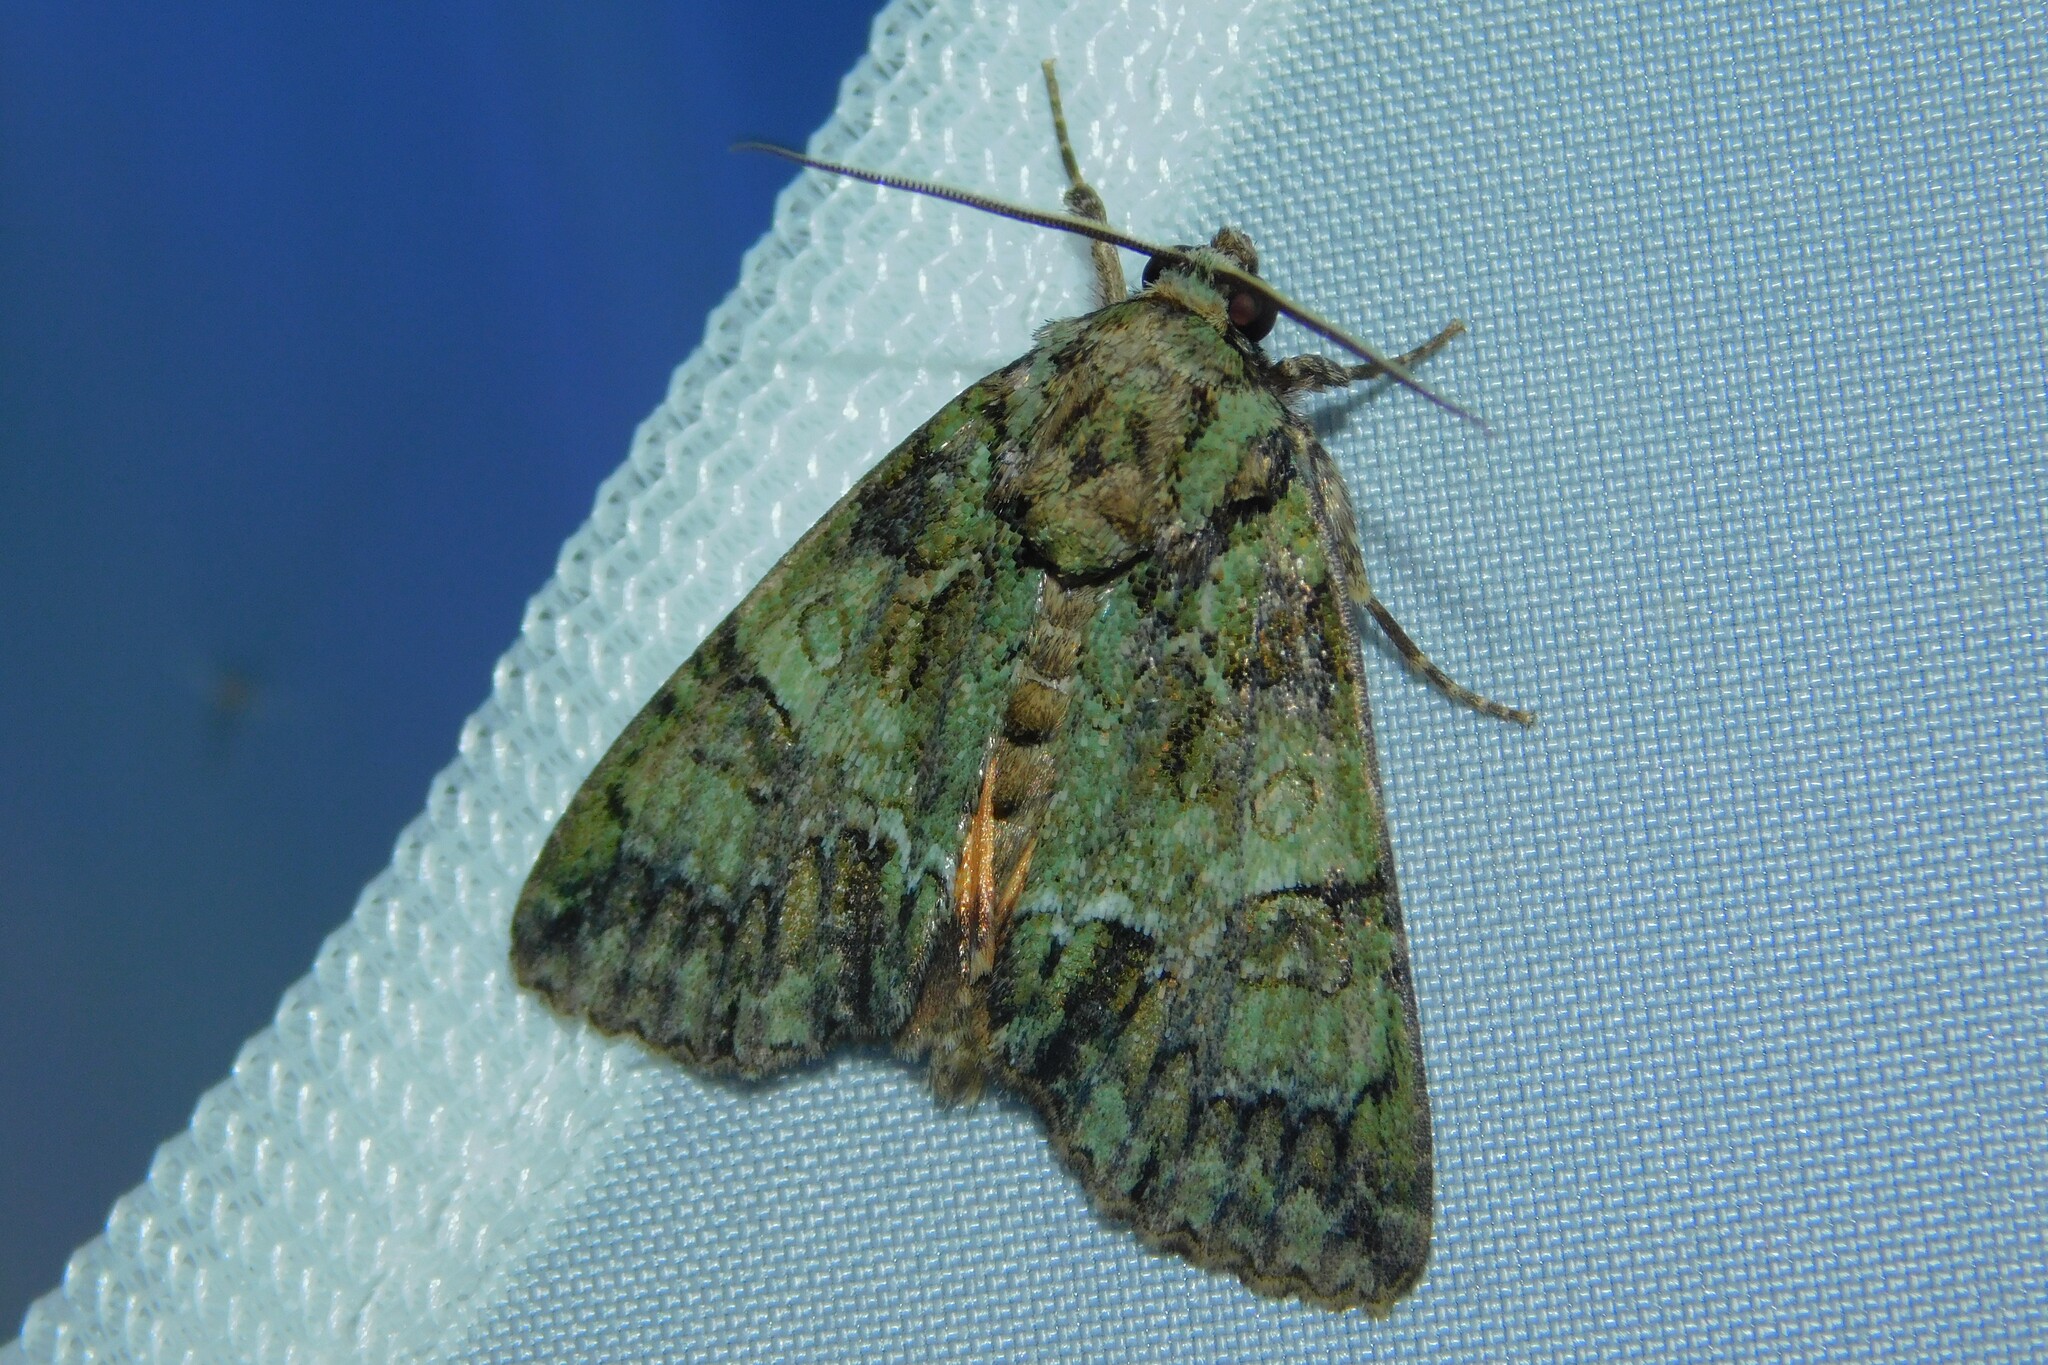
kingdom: Animalia
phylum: Arthropoda
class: Insecta
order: Lepidoptera
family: Noctuidae
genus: Polyphaenis
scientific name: Polyphaenis sericata
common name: Guernsey underwing
